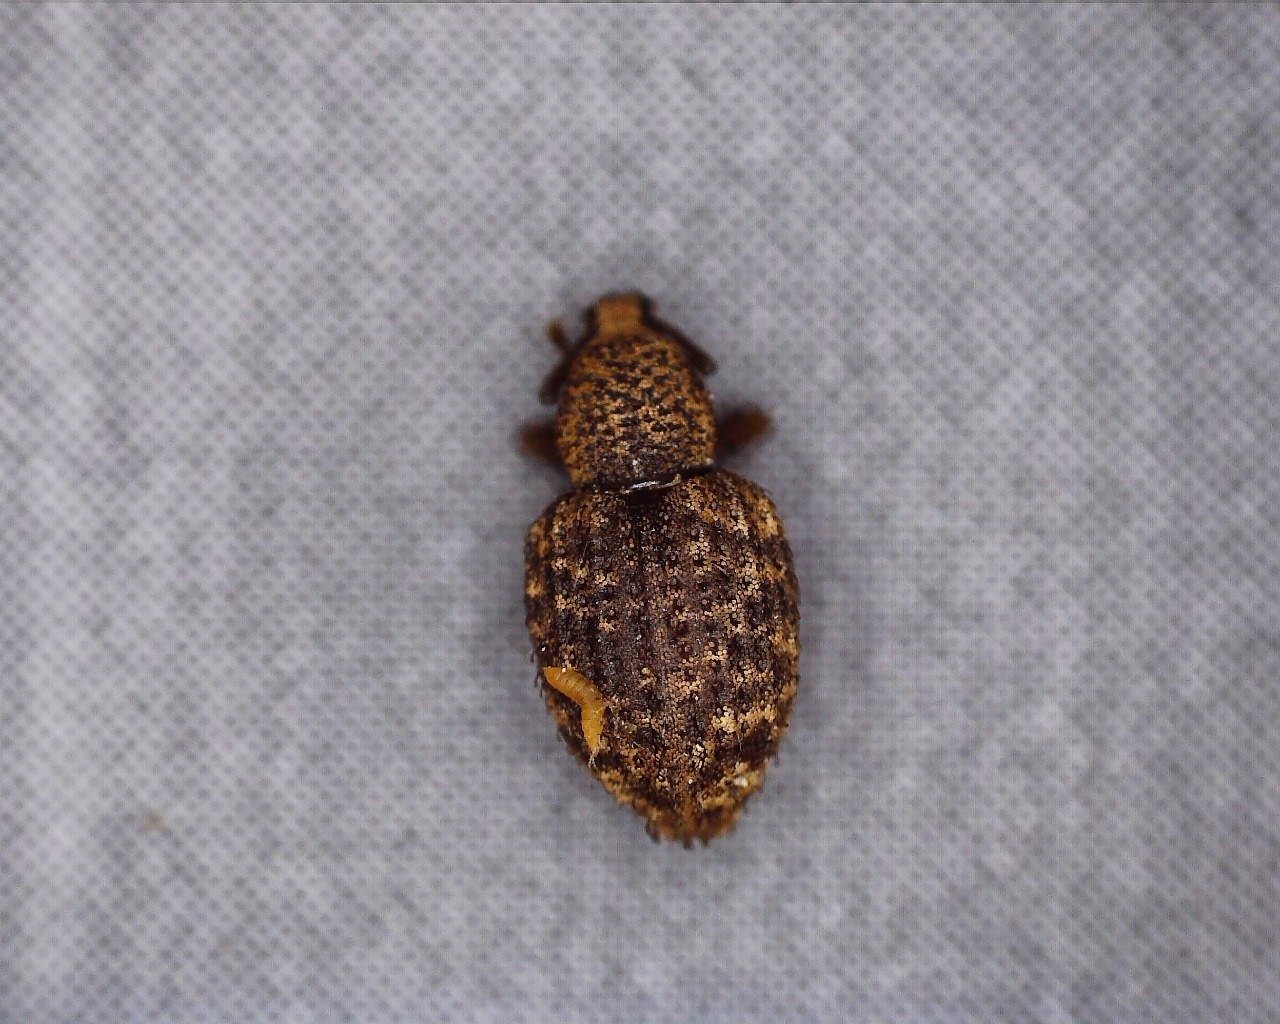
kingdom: Animalia
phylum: Arthropoda
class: Insecta
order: Coleoptera
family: Curculionidae
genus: Otiorhynchus
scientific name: Otiorhynchus carinatopunctatus
